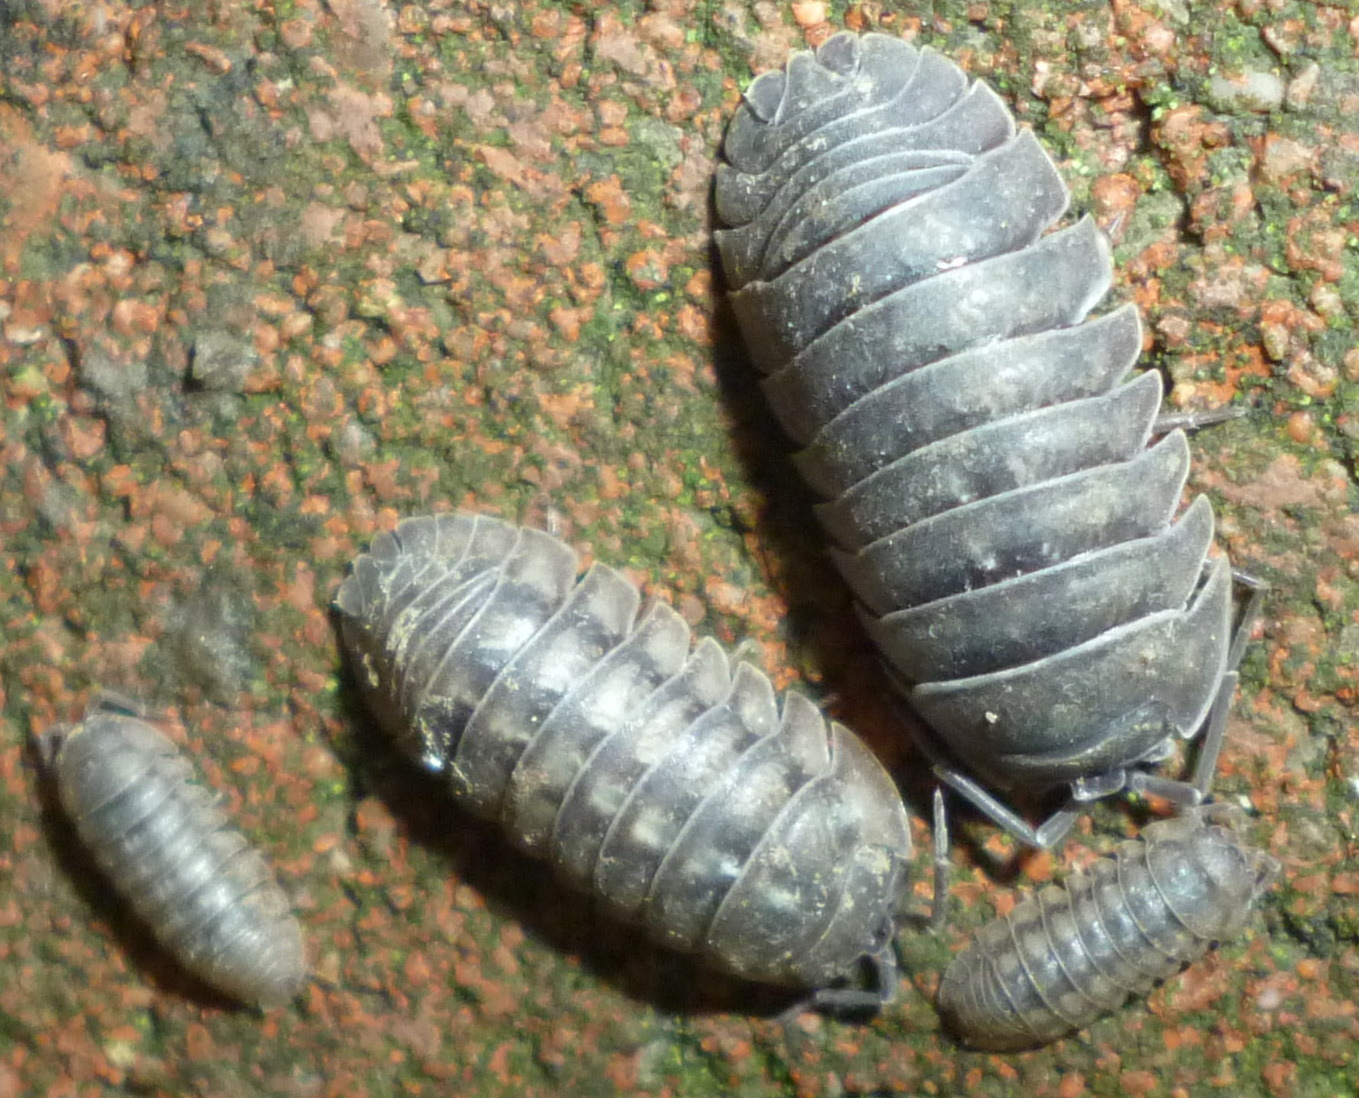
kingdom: Animalia
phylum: Arthropoda
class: Malacostraca
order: Isopoda
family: Armadillidiidae
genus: Armadillidium
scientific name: Armadillidium nasatum
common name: Isopod
